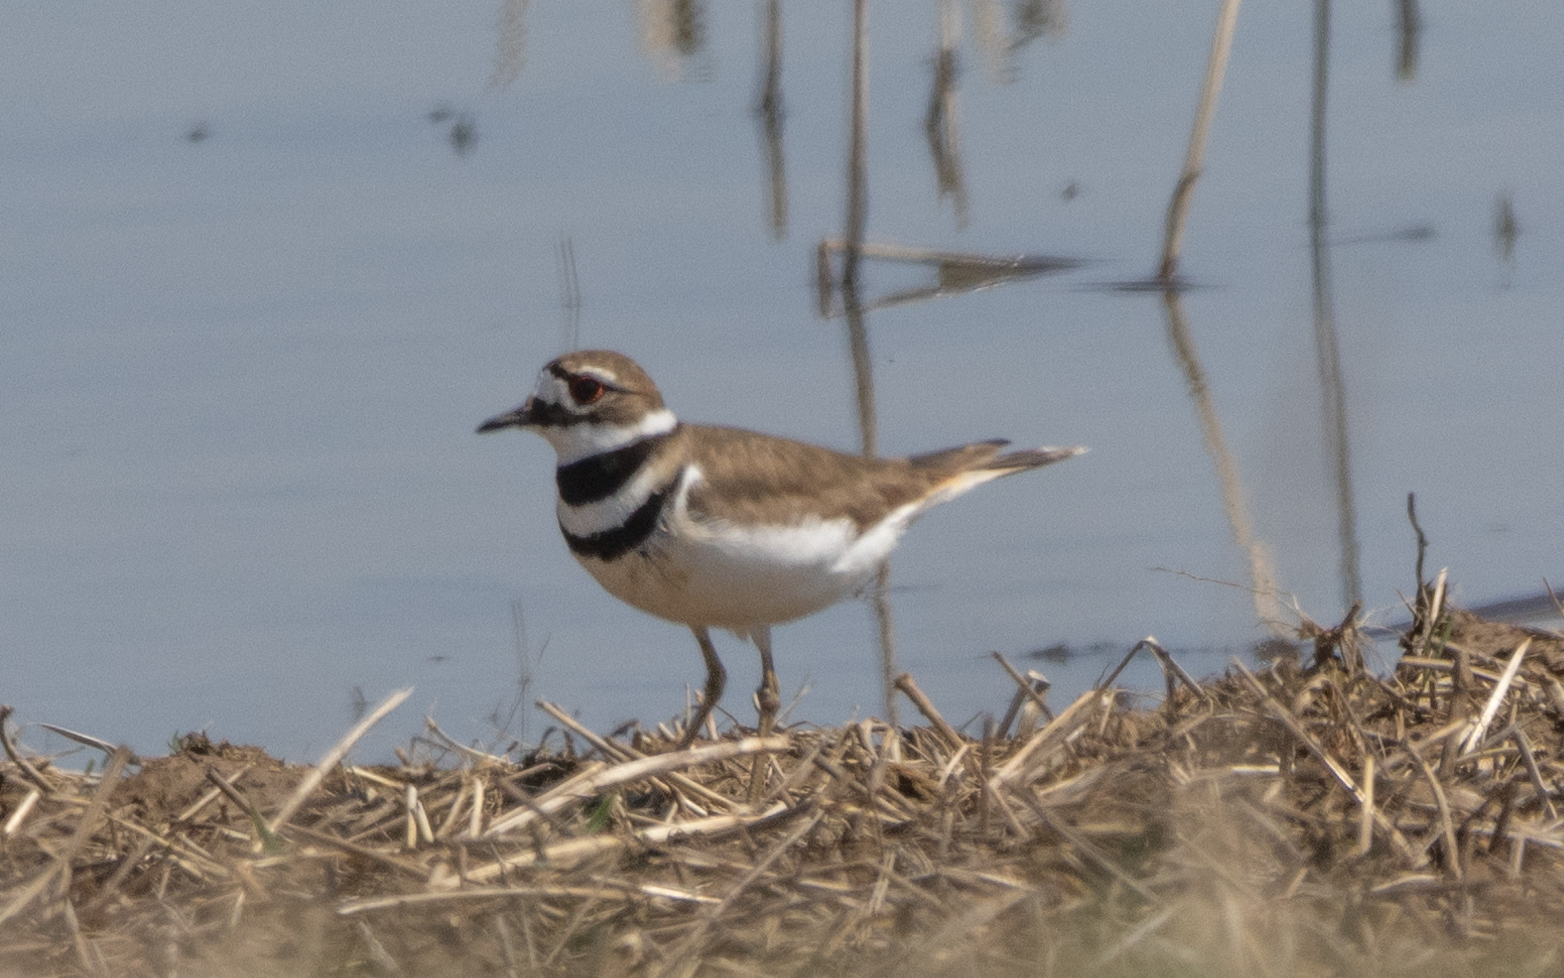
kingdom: Animalia
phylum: Chordata
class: Aves
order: Charadriiformes
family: Charadriidae
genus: Charadrius
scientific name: Charadrius vociferus
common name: Killdeer
